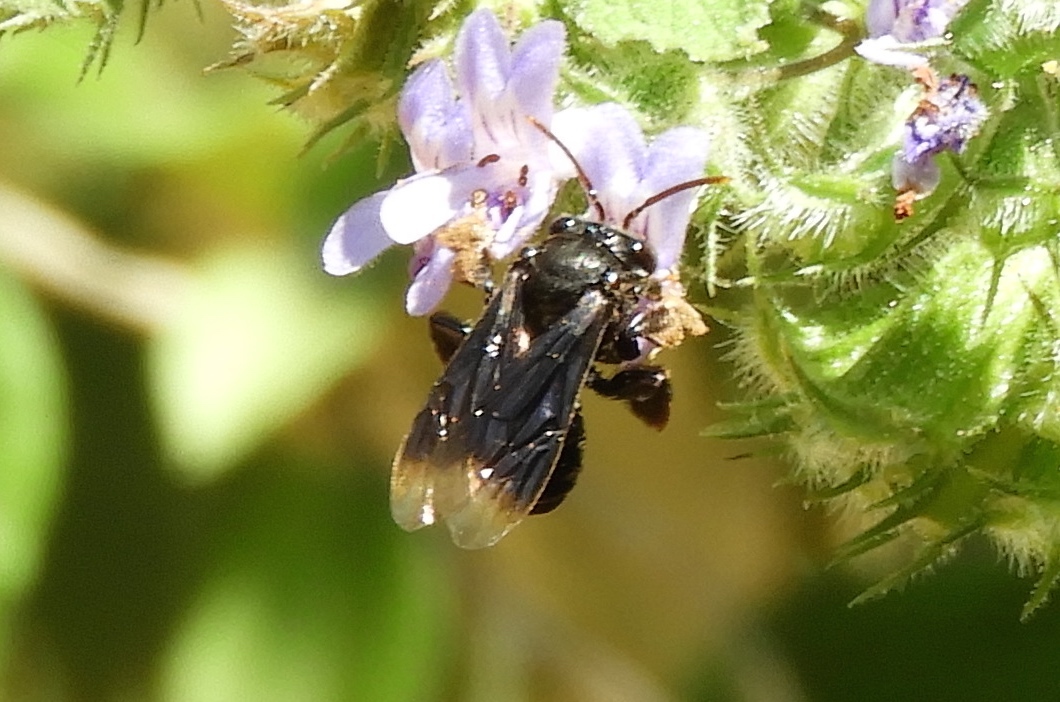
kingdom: Animalia
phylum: Arthropoda
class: Insecta
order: Hymenoptera
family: Apidae
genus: Paratetrapedia
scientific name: Paratetrapedia moesta
